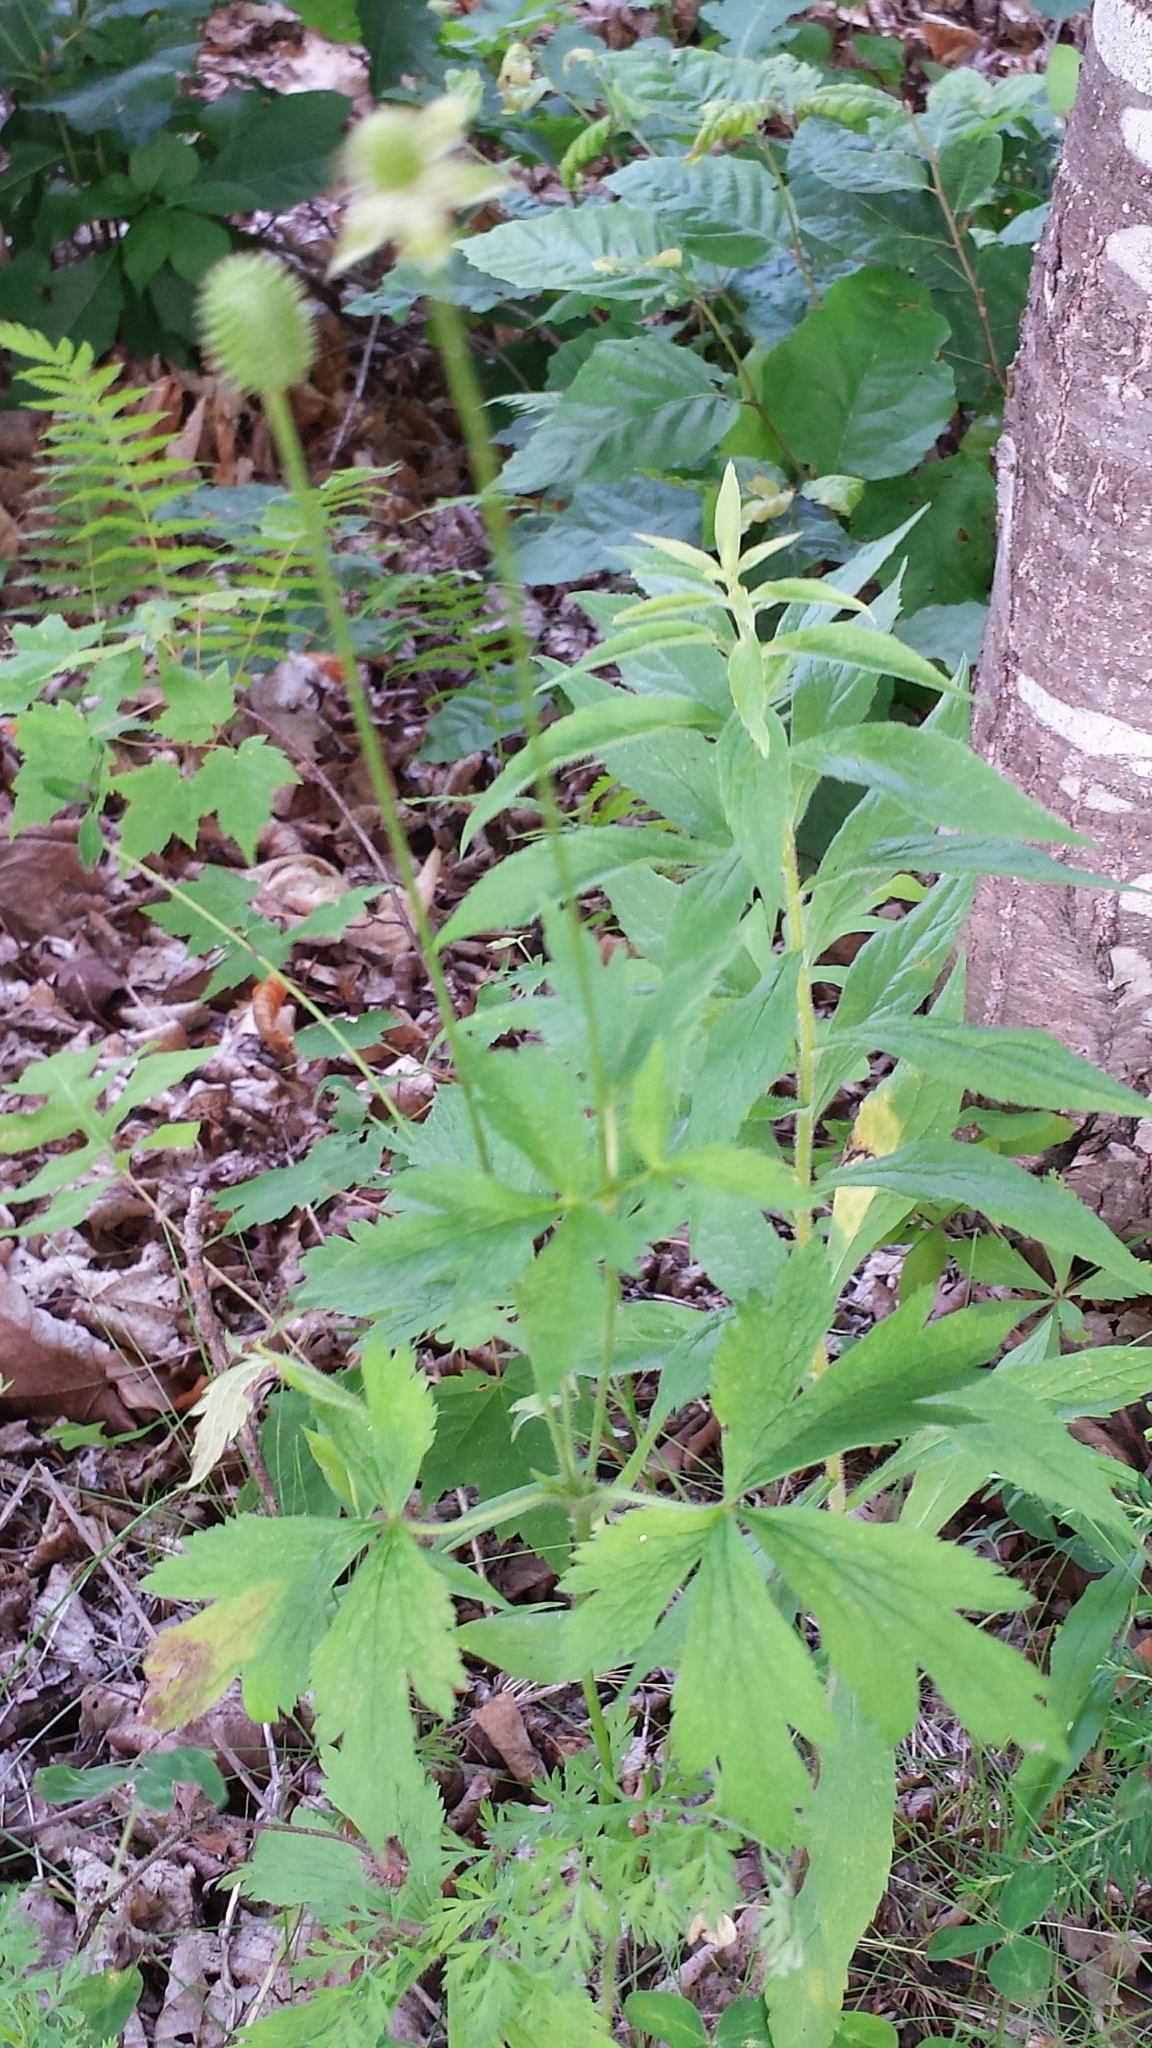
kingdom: Plantae
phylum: Tracheophyta
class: Magnoliopsida
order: Ranunculales
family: Ranunculaceae
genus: Anemone
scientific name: Anemone virginiana
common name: Tall anemone
